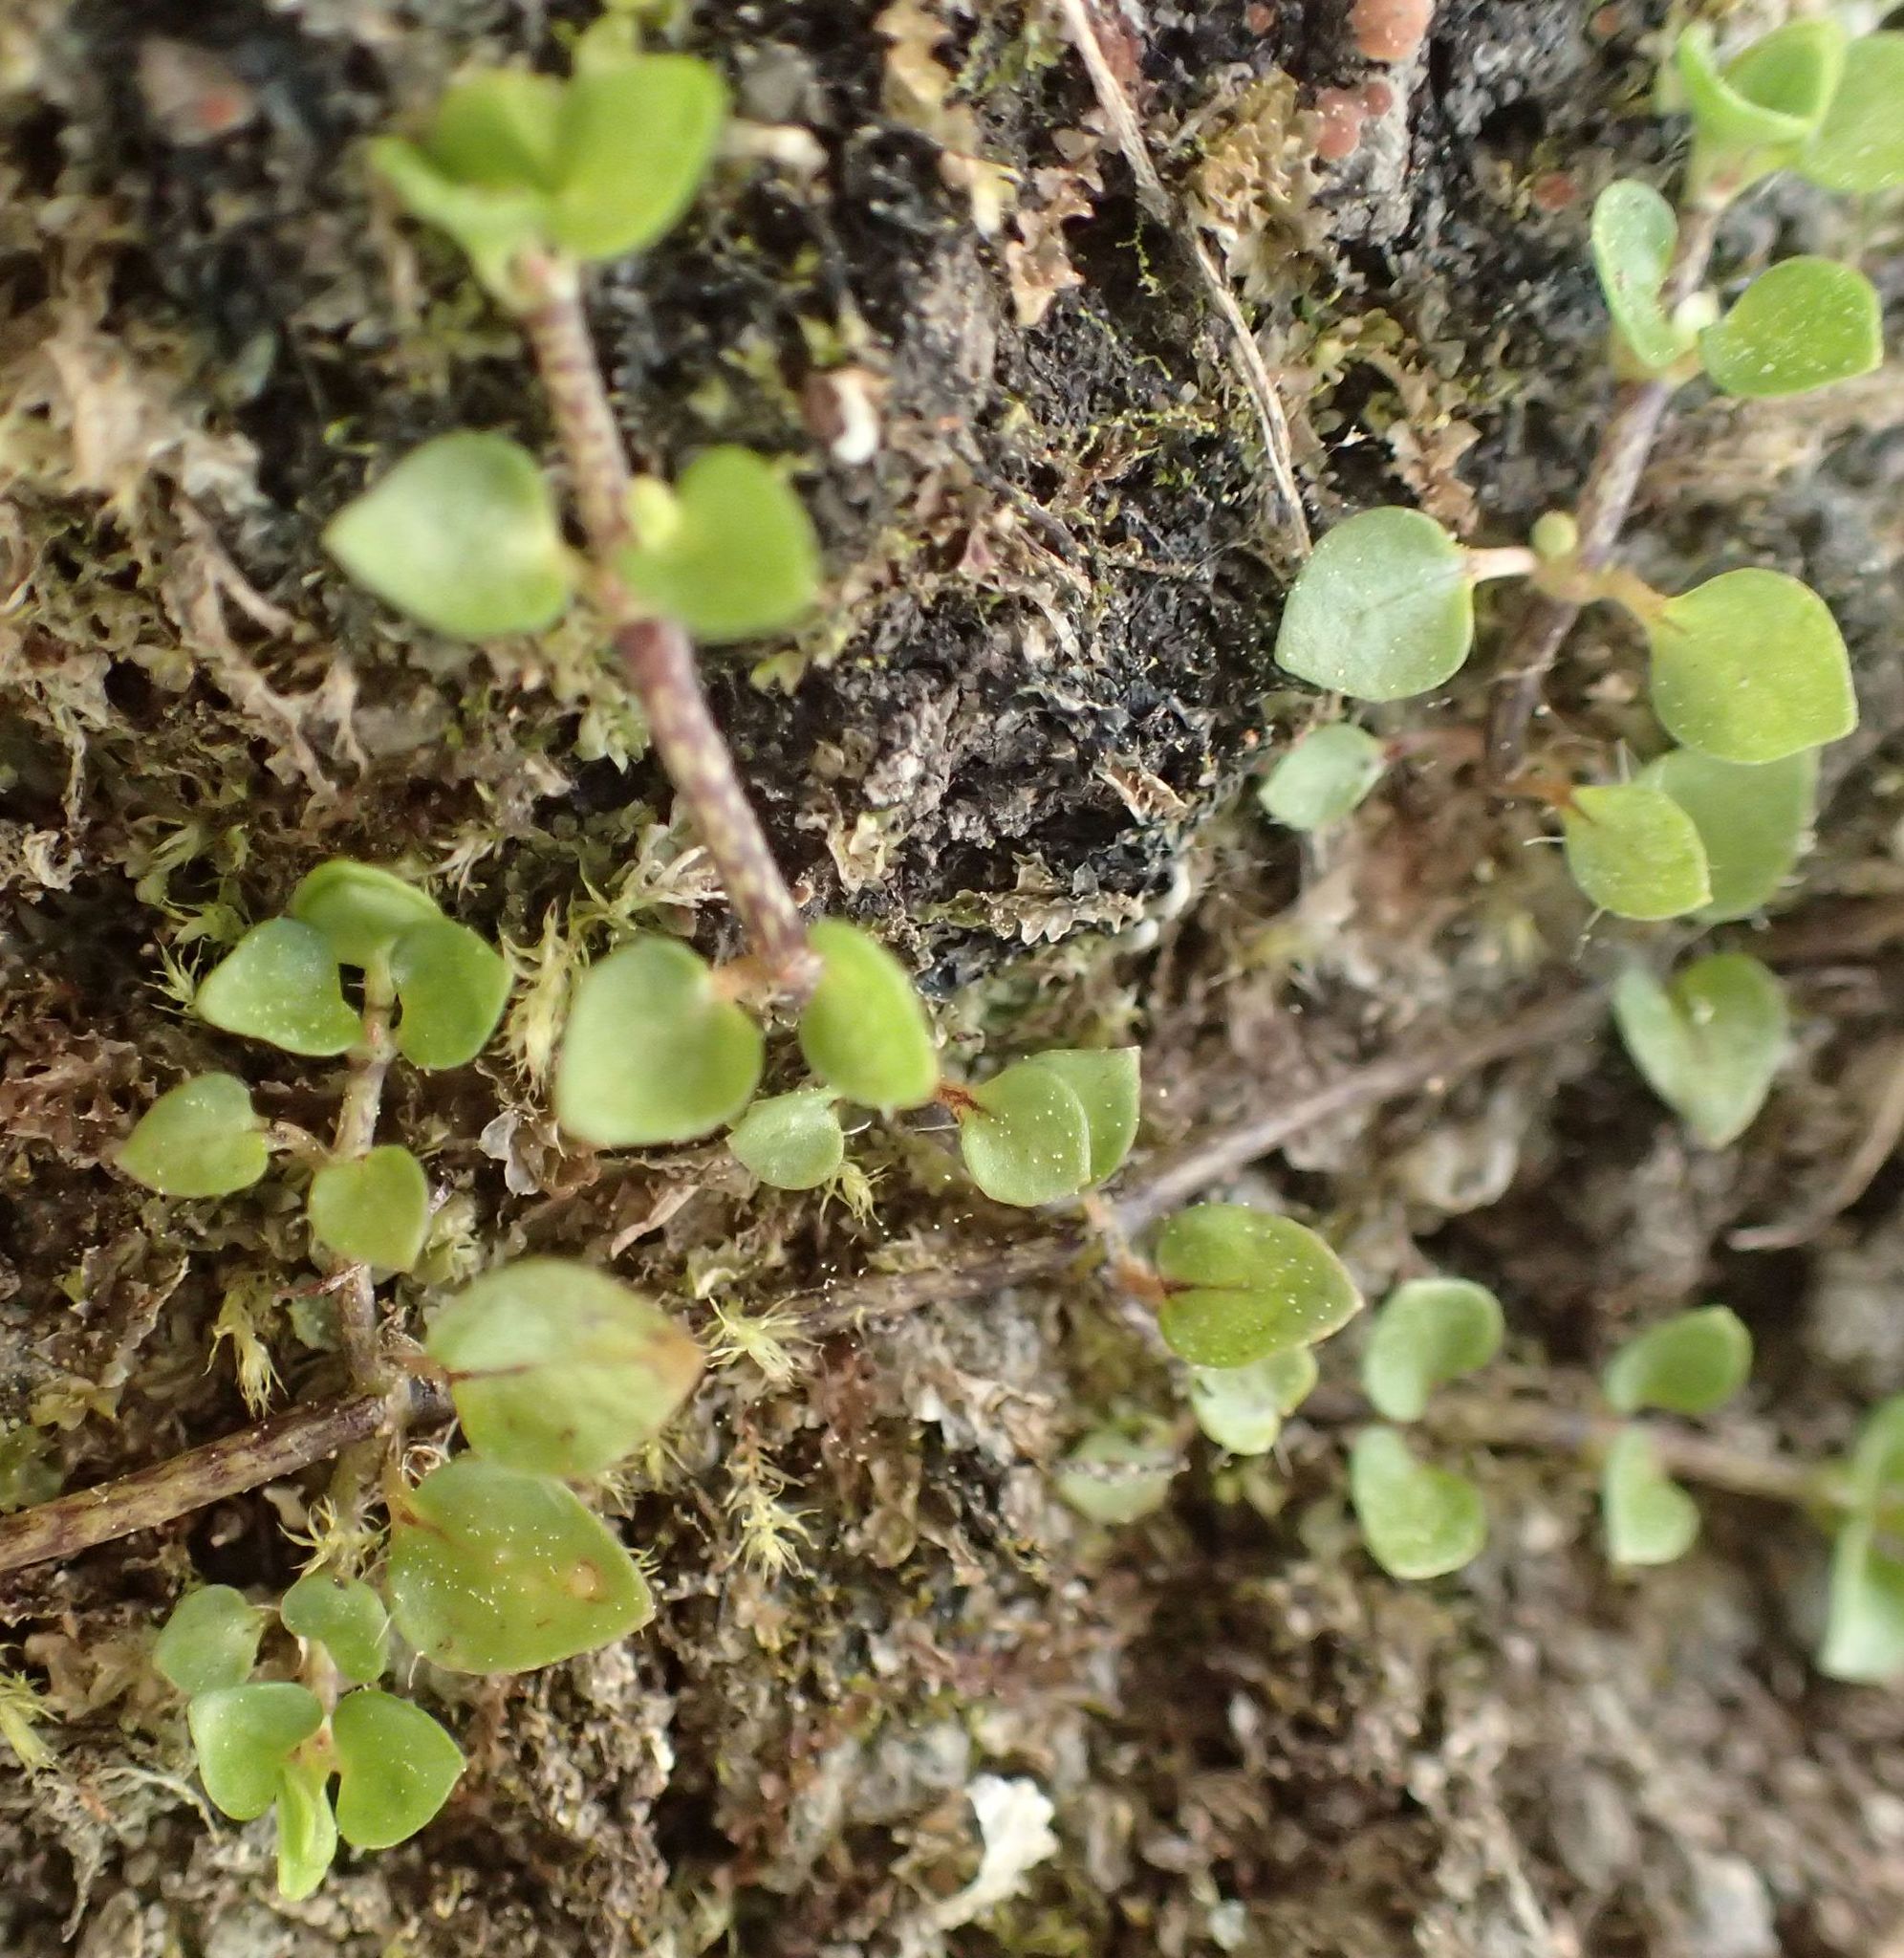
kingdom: Plantae
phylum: Tracheophyta
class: Magnoliopsida
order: Gentianales
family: Rubiaceae
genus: Nertera
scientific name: Nertera granadensis
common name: Beadplant
